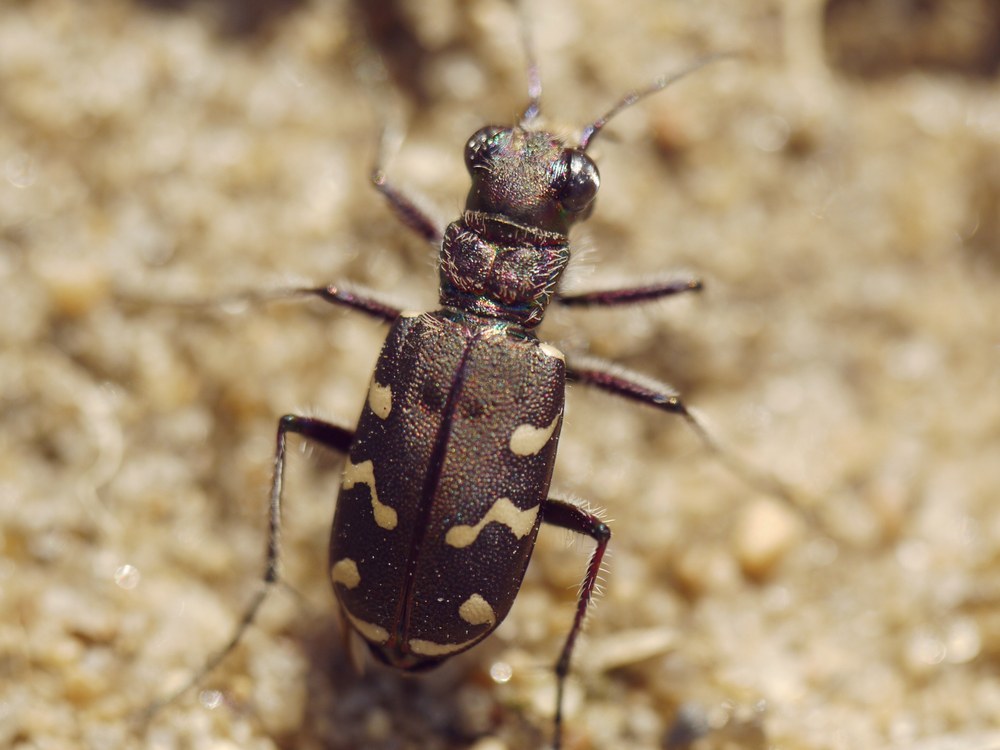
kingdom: Animalia
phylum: Arthropoda
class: Insecta
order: Coleoptera
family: Carabidae
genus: Cicindela
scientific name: Cicindela soluta
